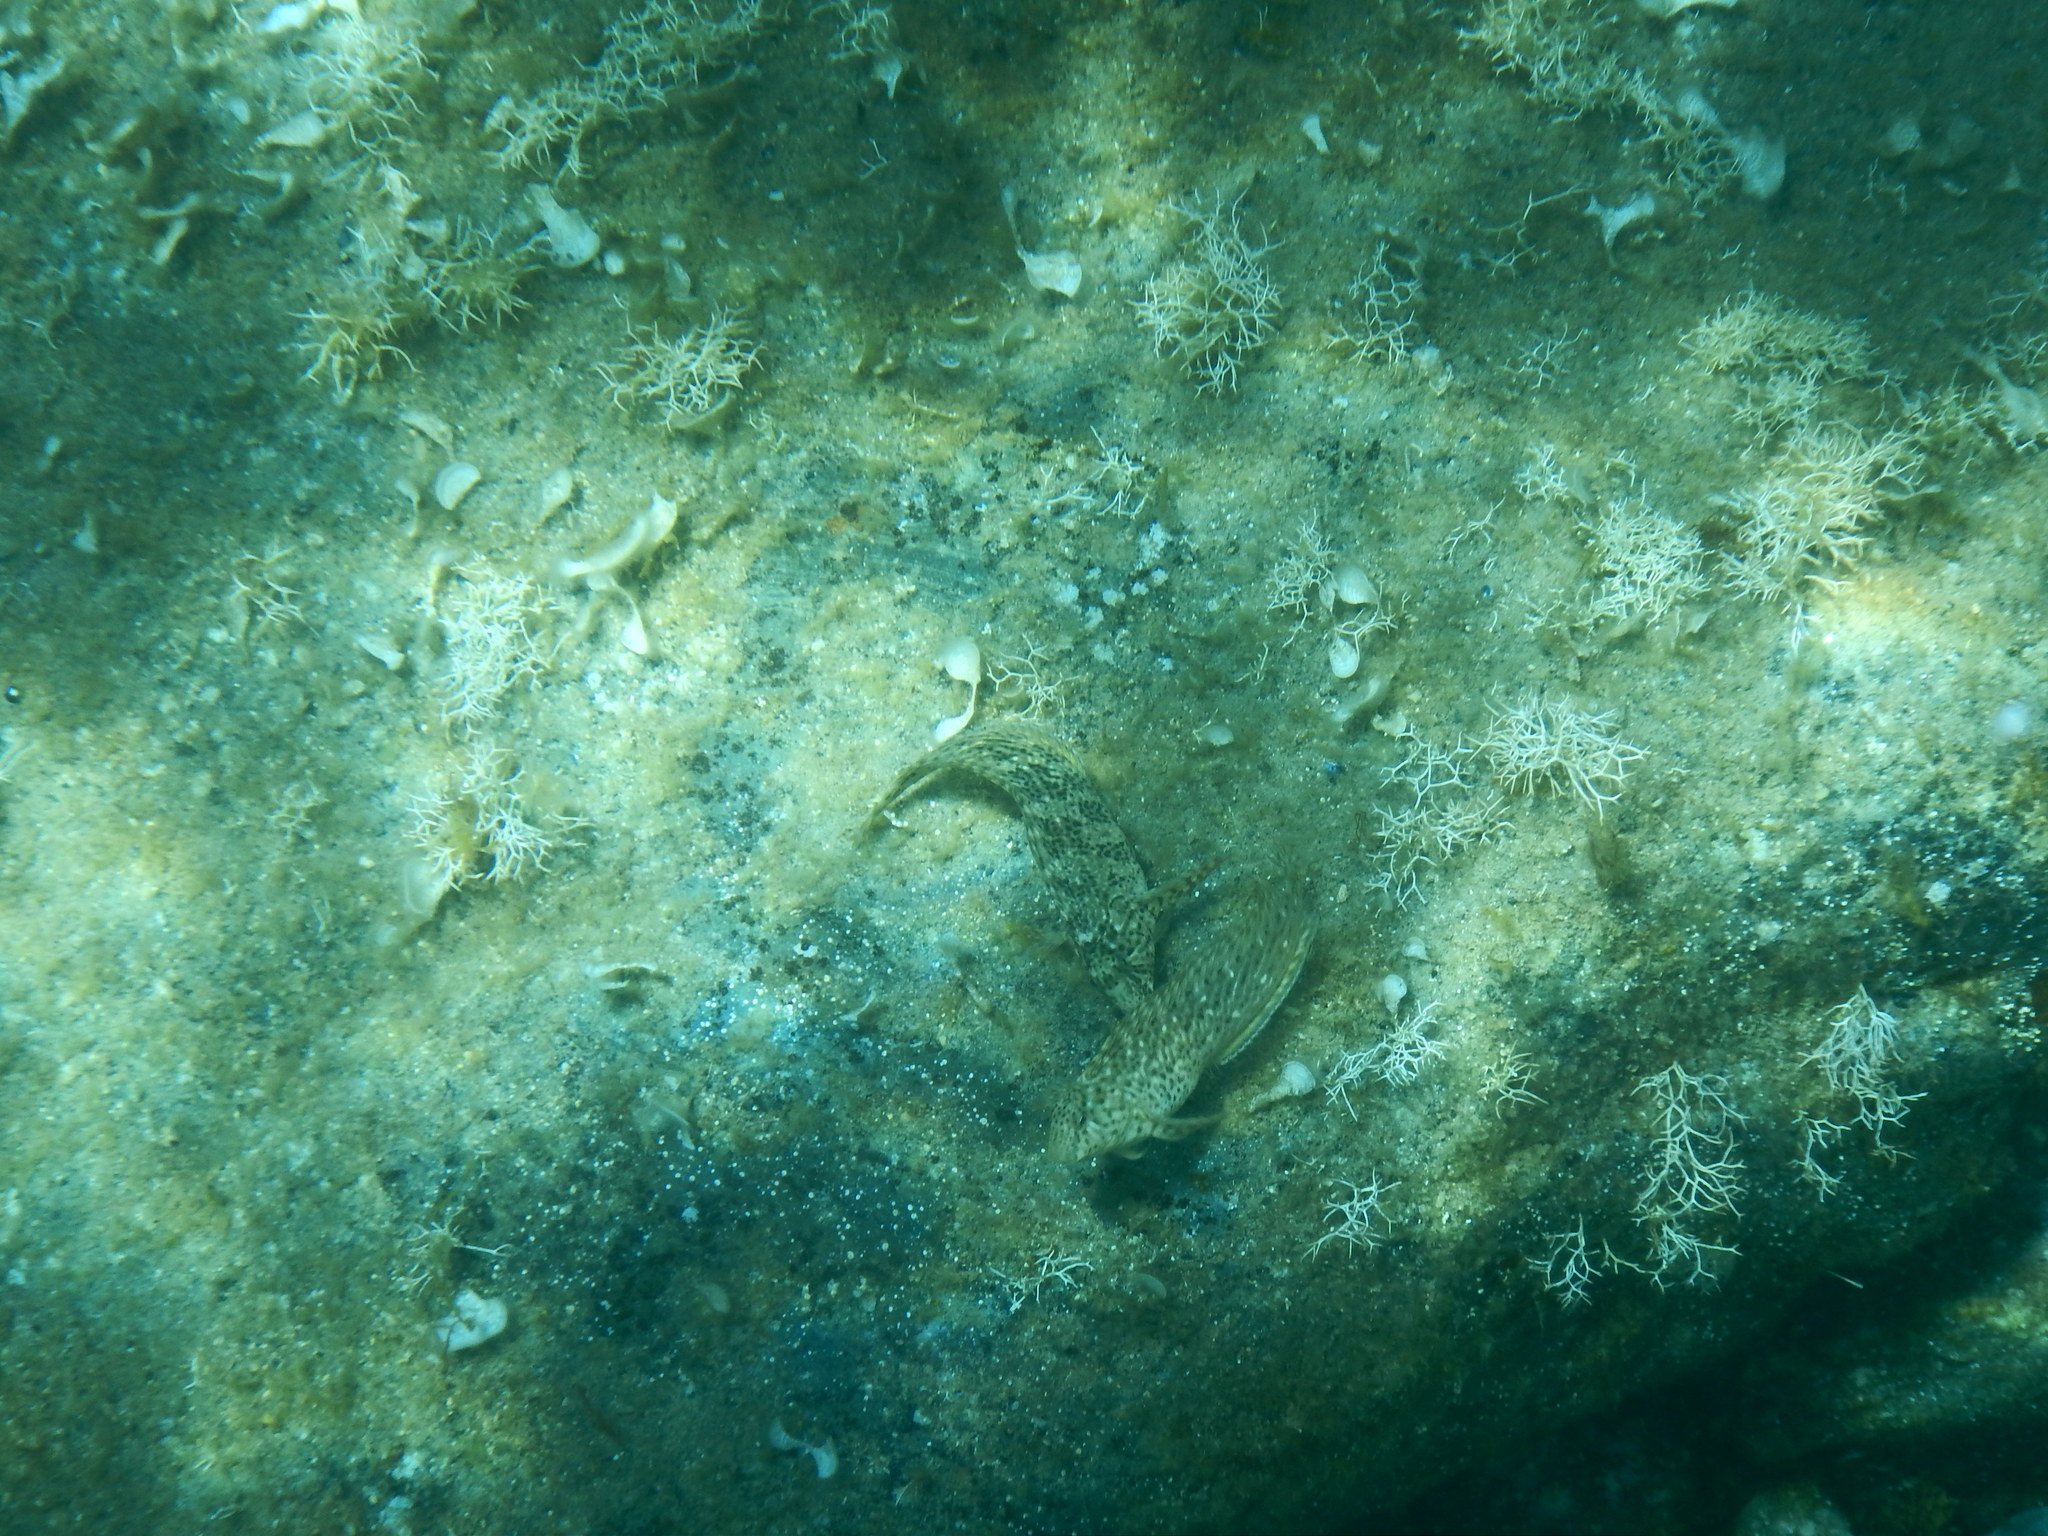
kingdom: Animalia
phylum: Chordata
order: Perciformes
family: Blenniidae
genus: Parablennius
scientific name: Parablennius sanguinolentus
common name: Black sea blenny
